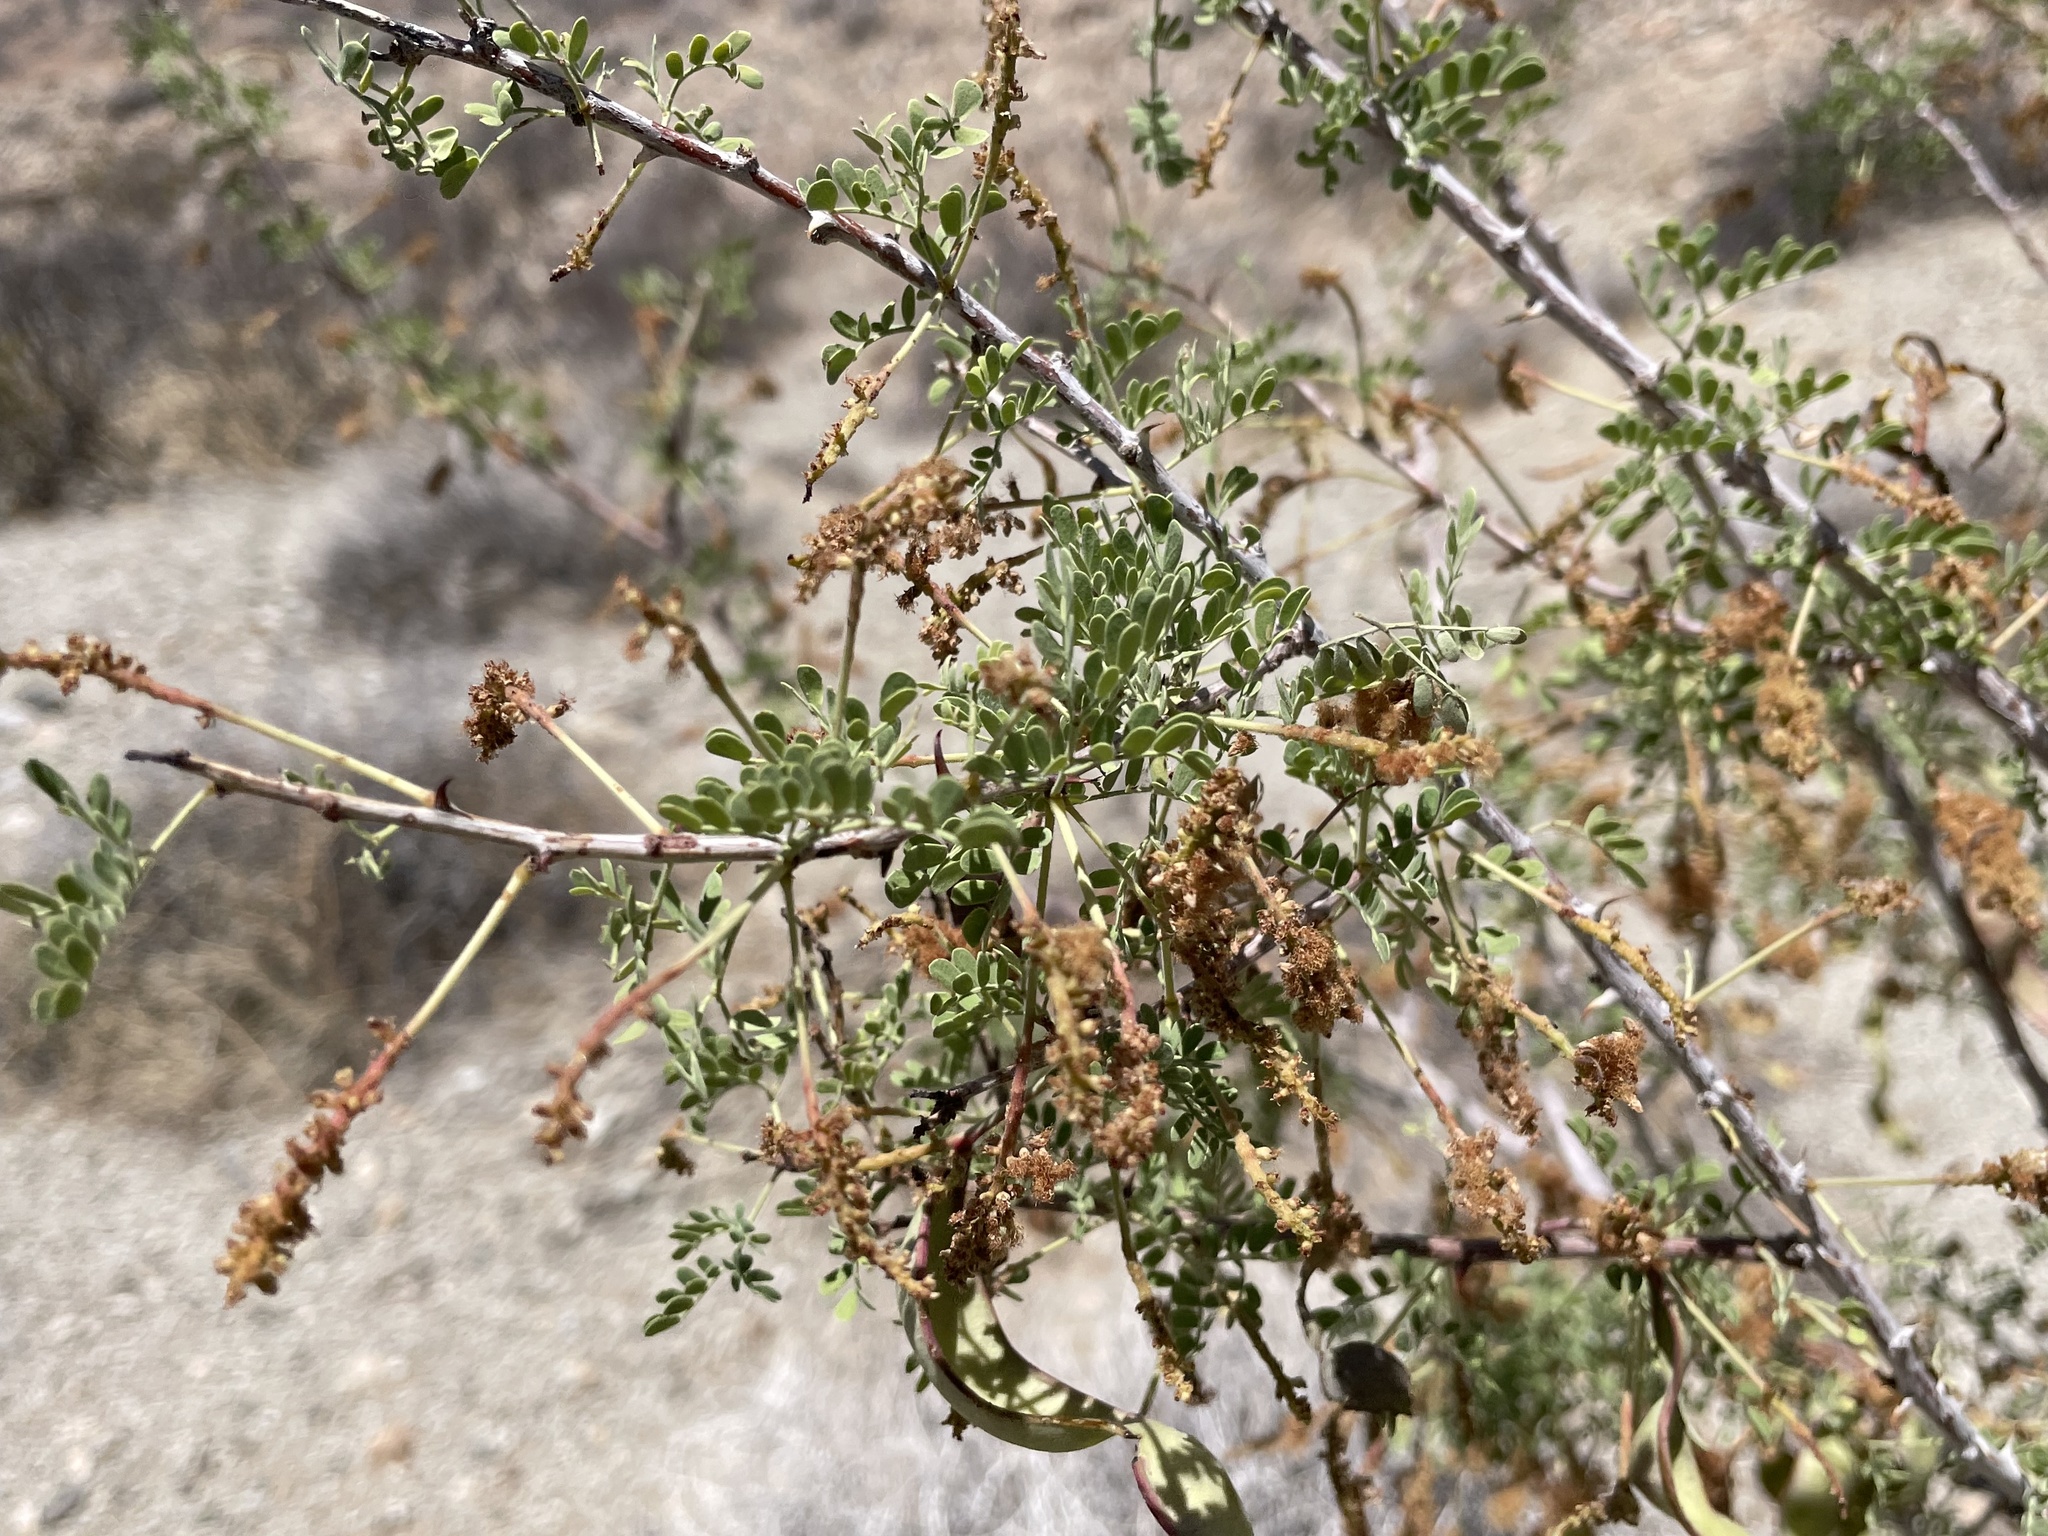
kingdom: Plantae
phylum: Tracheophyta
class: Magnoliopsida
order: Fabales
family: Fabaceae
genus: Senegalia
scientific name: Senegalia greggii
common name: Texas-mimosa
